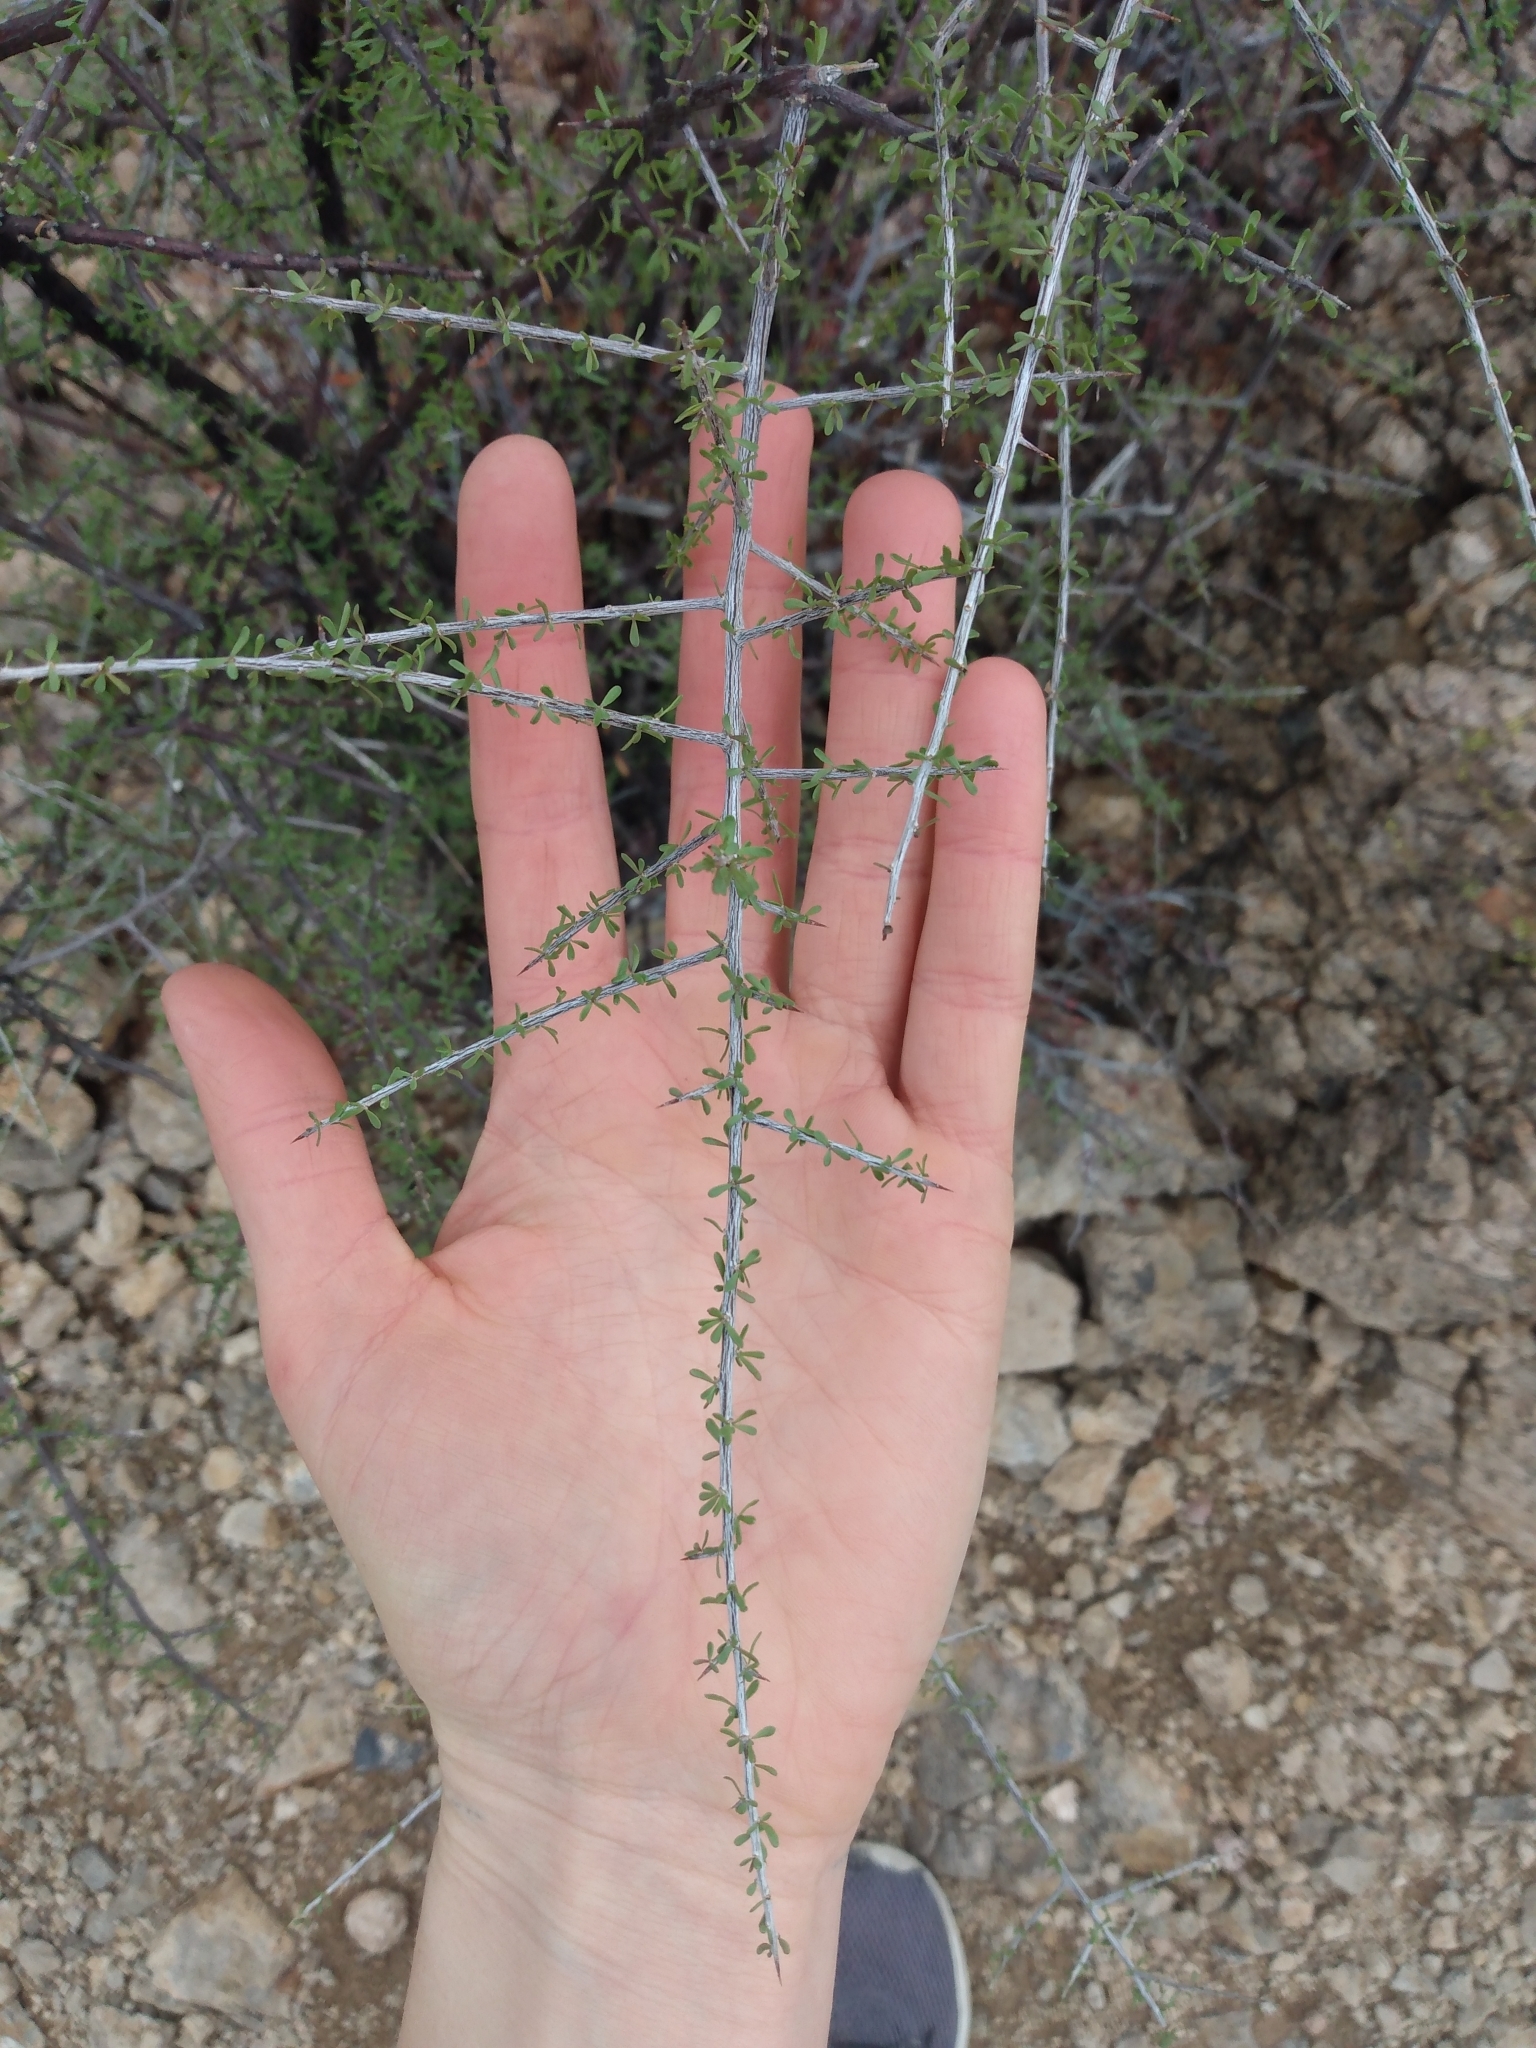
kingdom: Plantae
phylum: Tracheophyta
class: Magnoliopsida
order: Solanales
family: Solanaceae
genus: Lycium
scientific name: Lycium berlandieri
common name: Berlandier wolfberry
